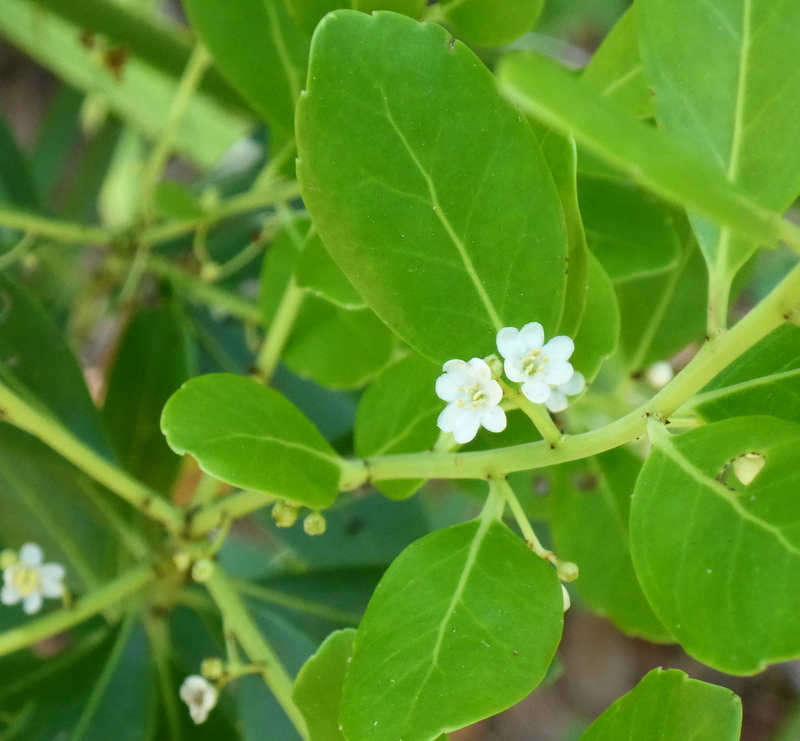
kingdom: Plantae
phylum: Tracheophyta
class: Magnoliopsida
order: Aquifoliales
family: Aquifoliaceae
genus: Ilex
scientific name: Ilex glabra
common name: Bitter gallberry
